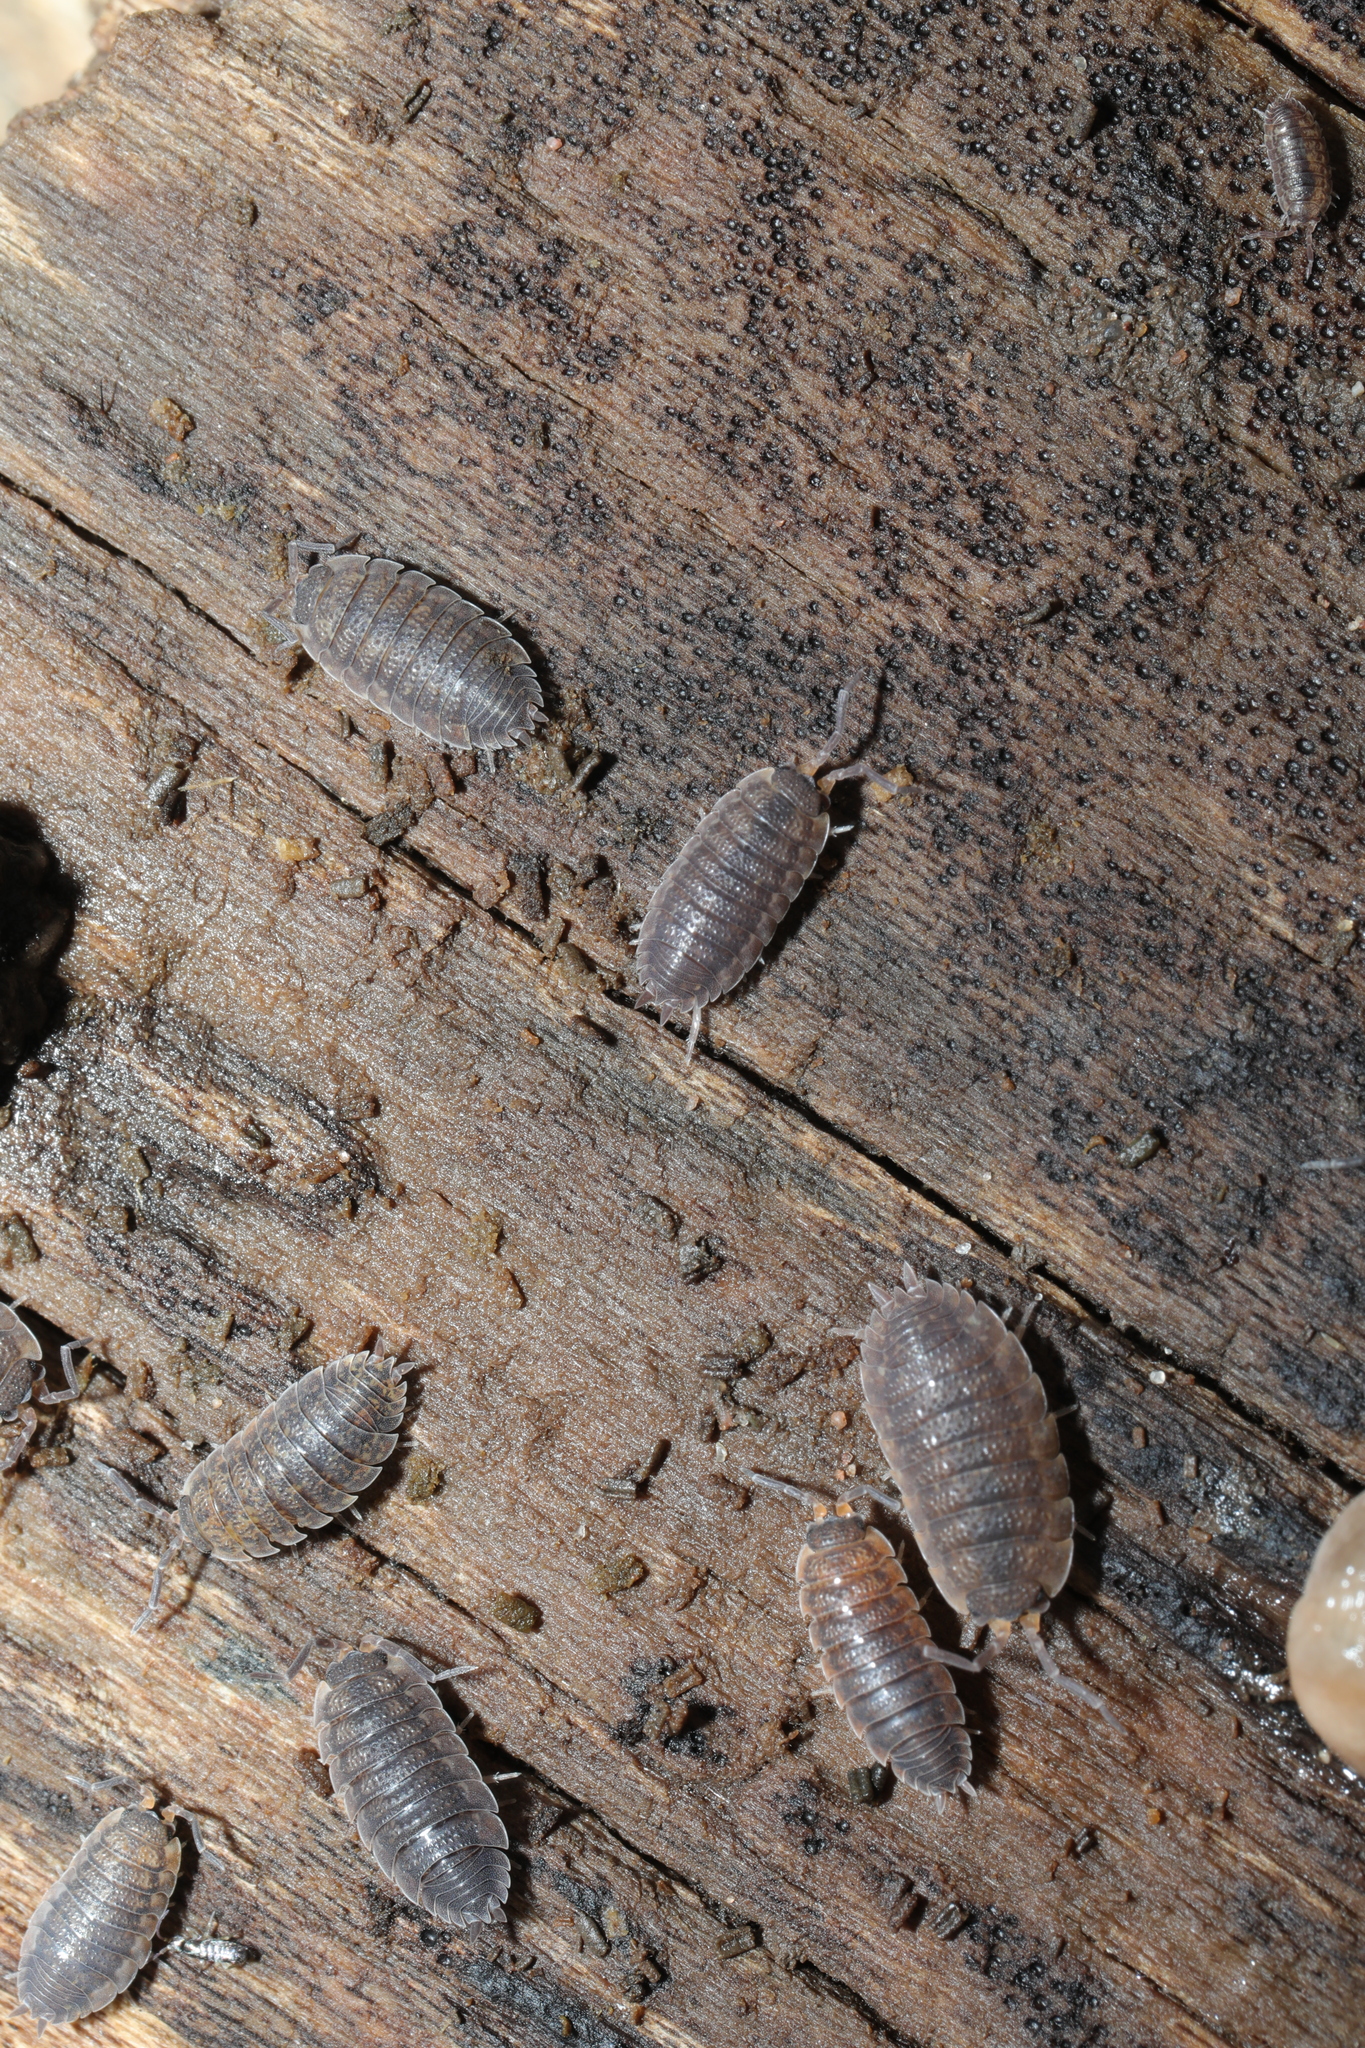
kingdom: Animalia
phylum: Arthropoda
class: Malacostraca
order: Isopoda
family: Porcellionidae
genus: Porcellio
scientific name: Porcellio scaber
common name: Common rough woodlouse
